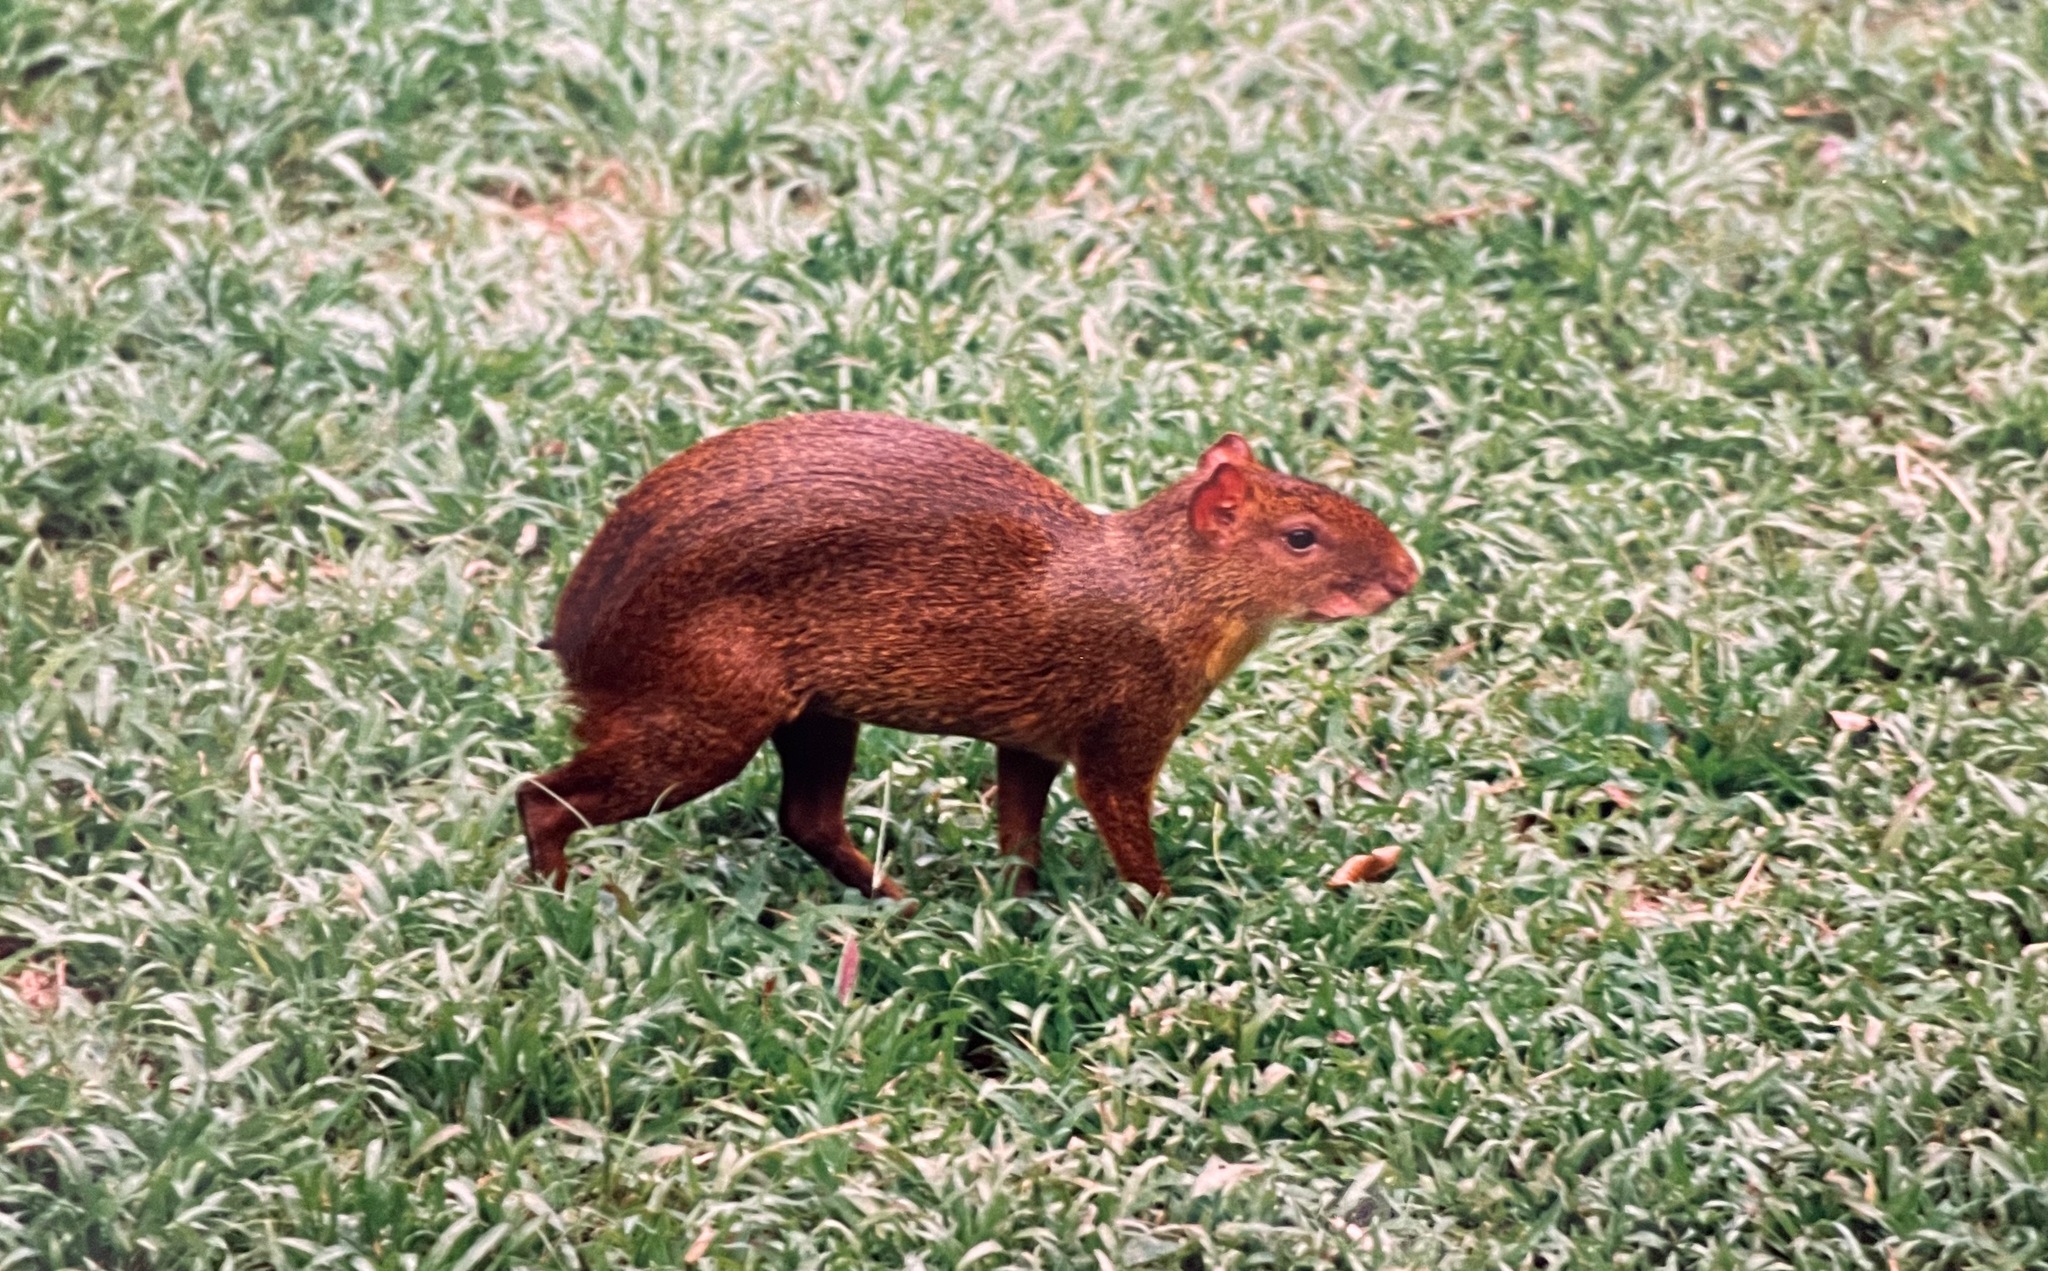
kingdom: Animalia
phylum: Chordata
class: Mammalia
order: Rodentia
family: Dasyproctidae
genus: Dasyprocta
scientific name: Dasyprocta variegata
